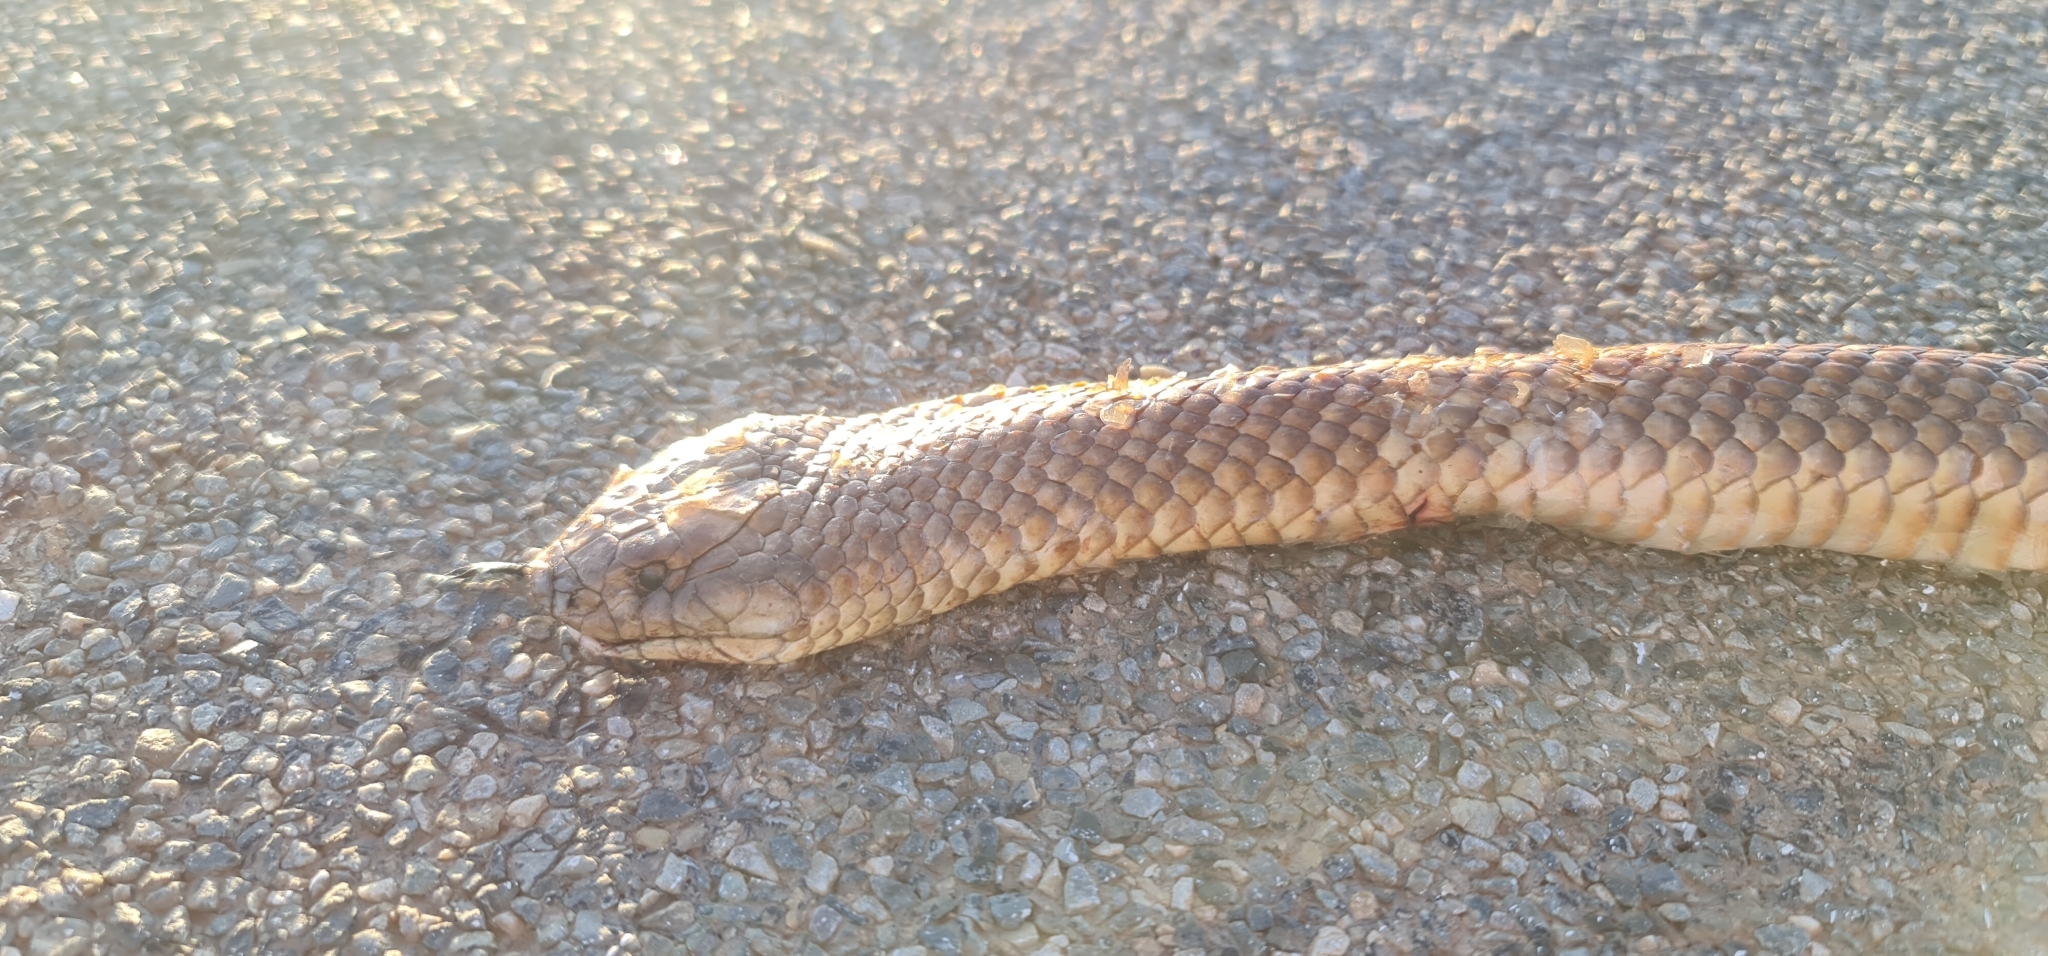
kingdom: Animalia
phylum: Chordata
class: Squamata
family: Elapidae
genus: Pseudechis
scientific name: Pseudechis australis
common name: King brown snake
